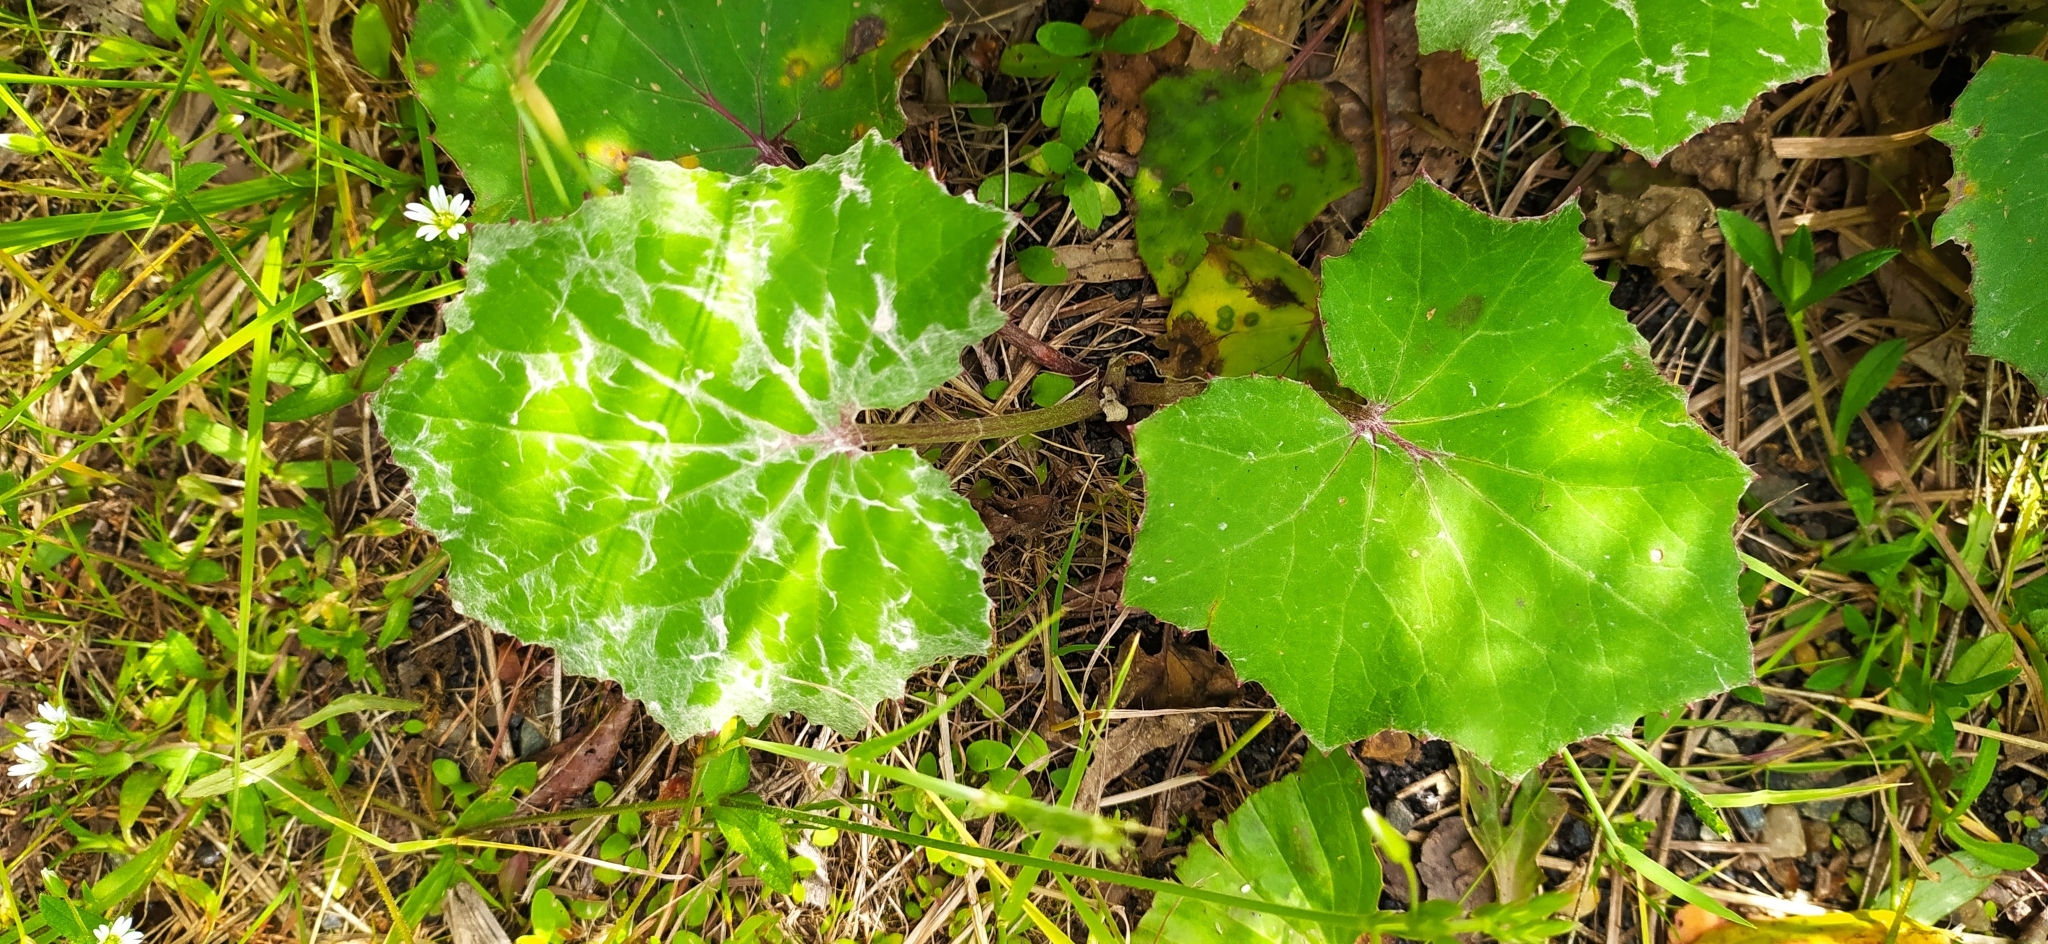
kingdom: Plantae
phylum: Tracheophyta
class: Magnoliopsida
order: Asterales
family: Asteraceae
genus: Tussilago
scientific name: Tussilago farfara
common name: Coltsfoot
